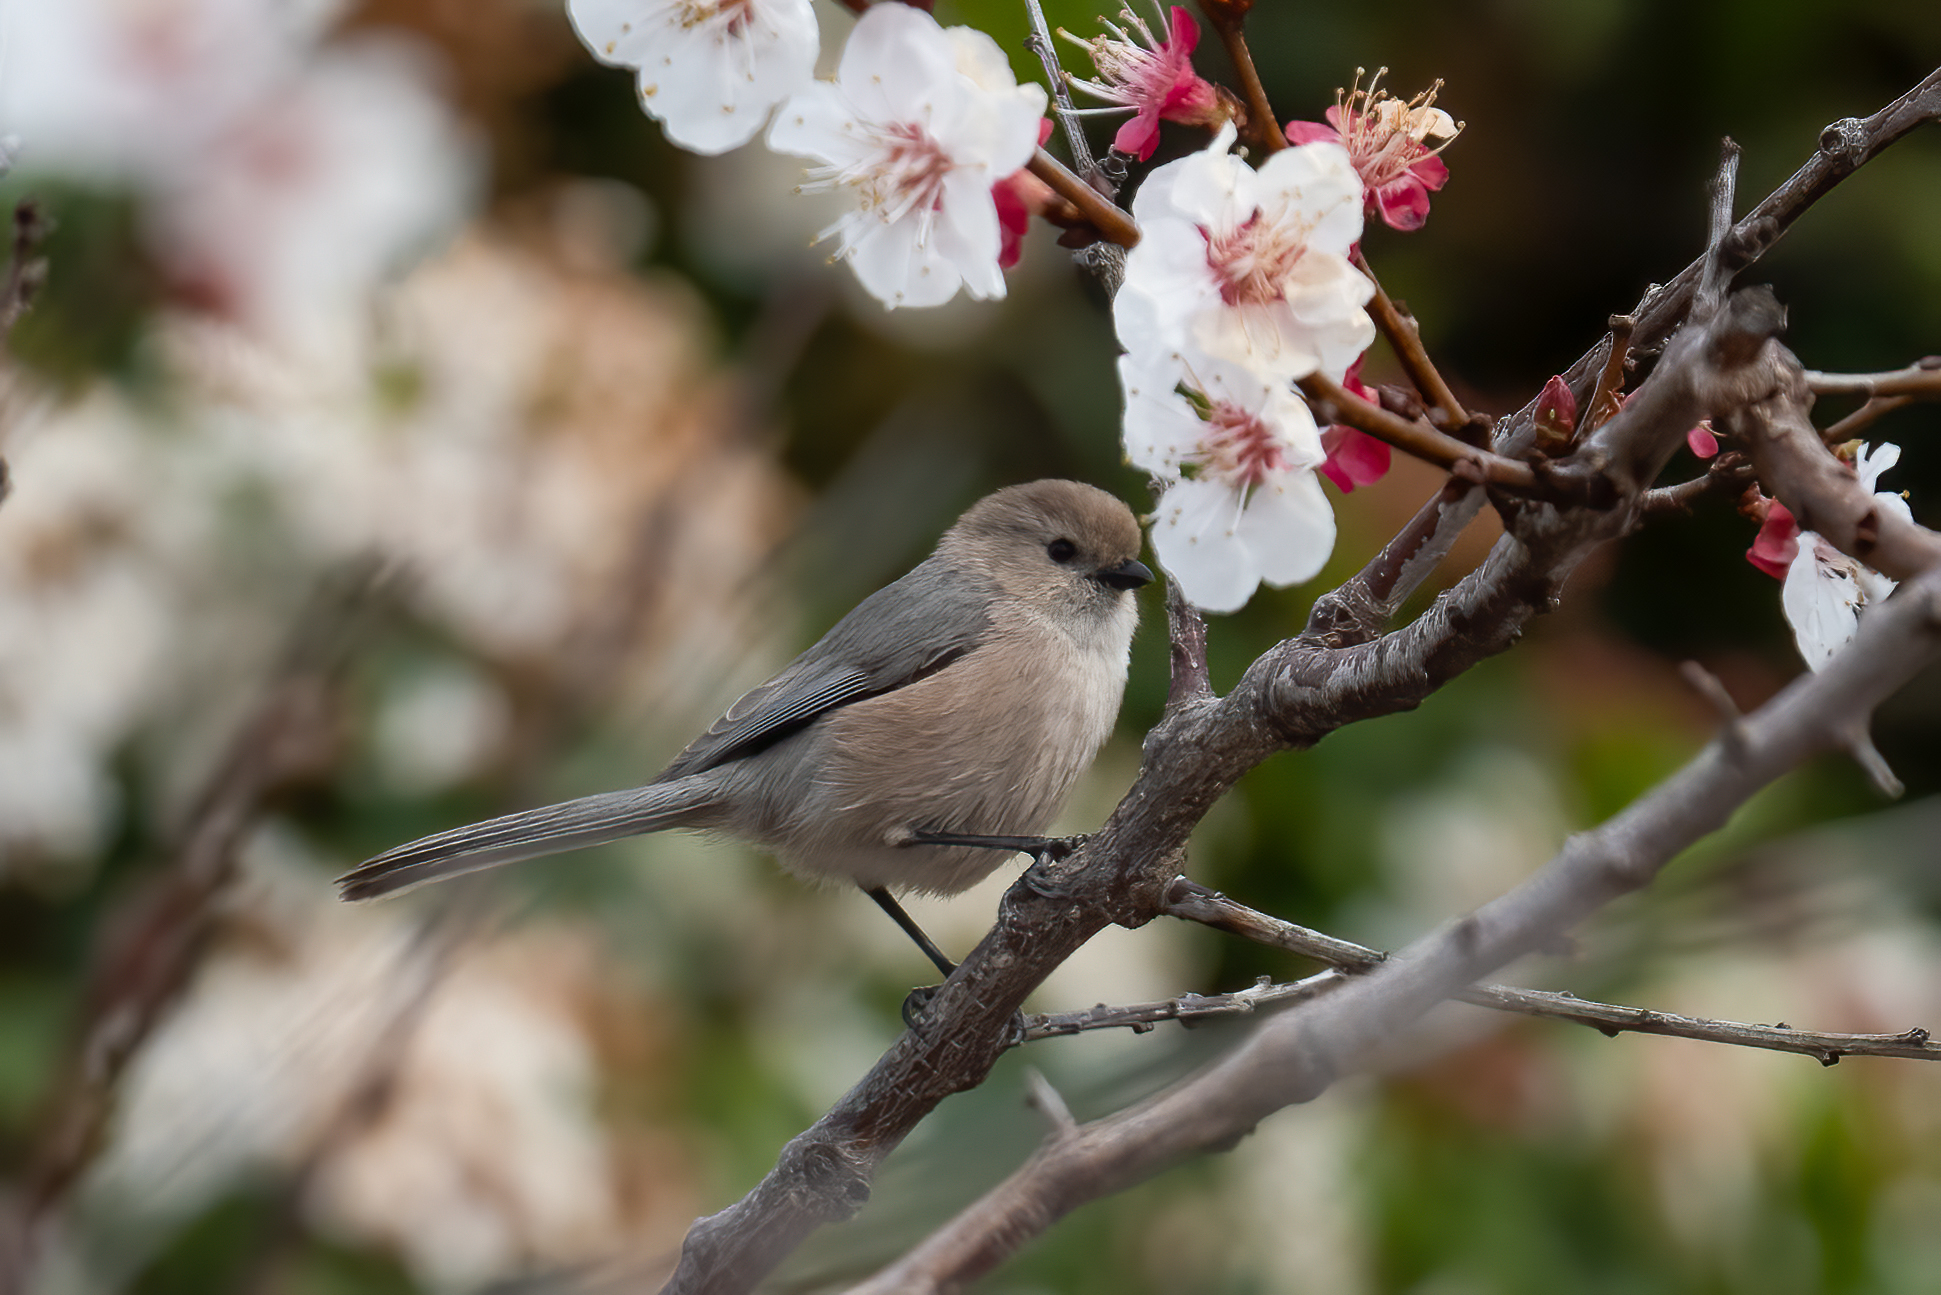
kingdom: Animalia
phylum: Chordata
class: Aves
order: Passeriformes
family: Aegithalidae
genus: Psaltriparus
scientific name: Psaltriparus minimus
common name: American bushtit
